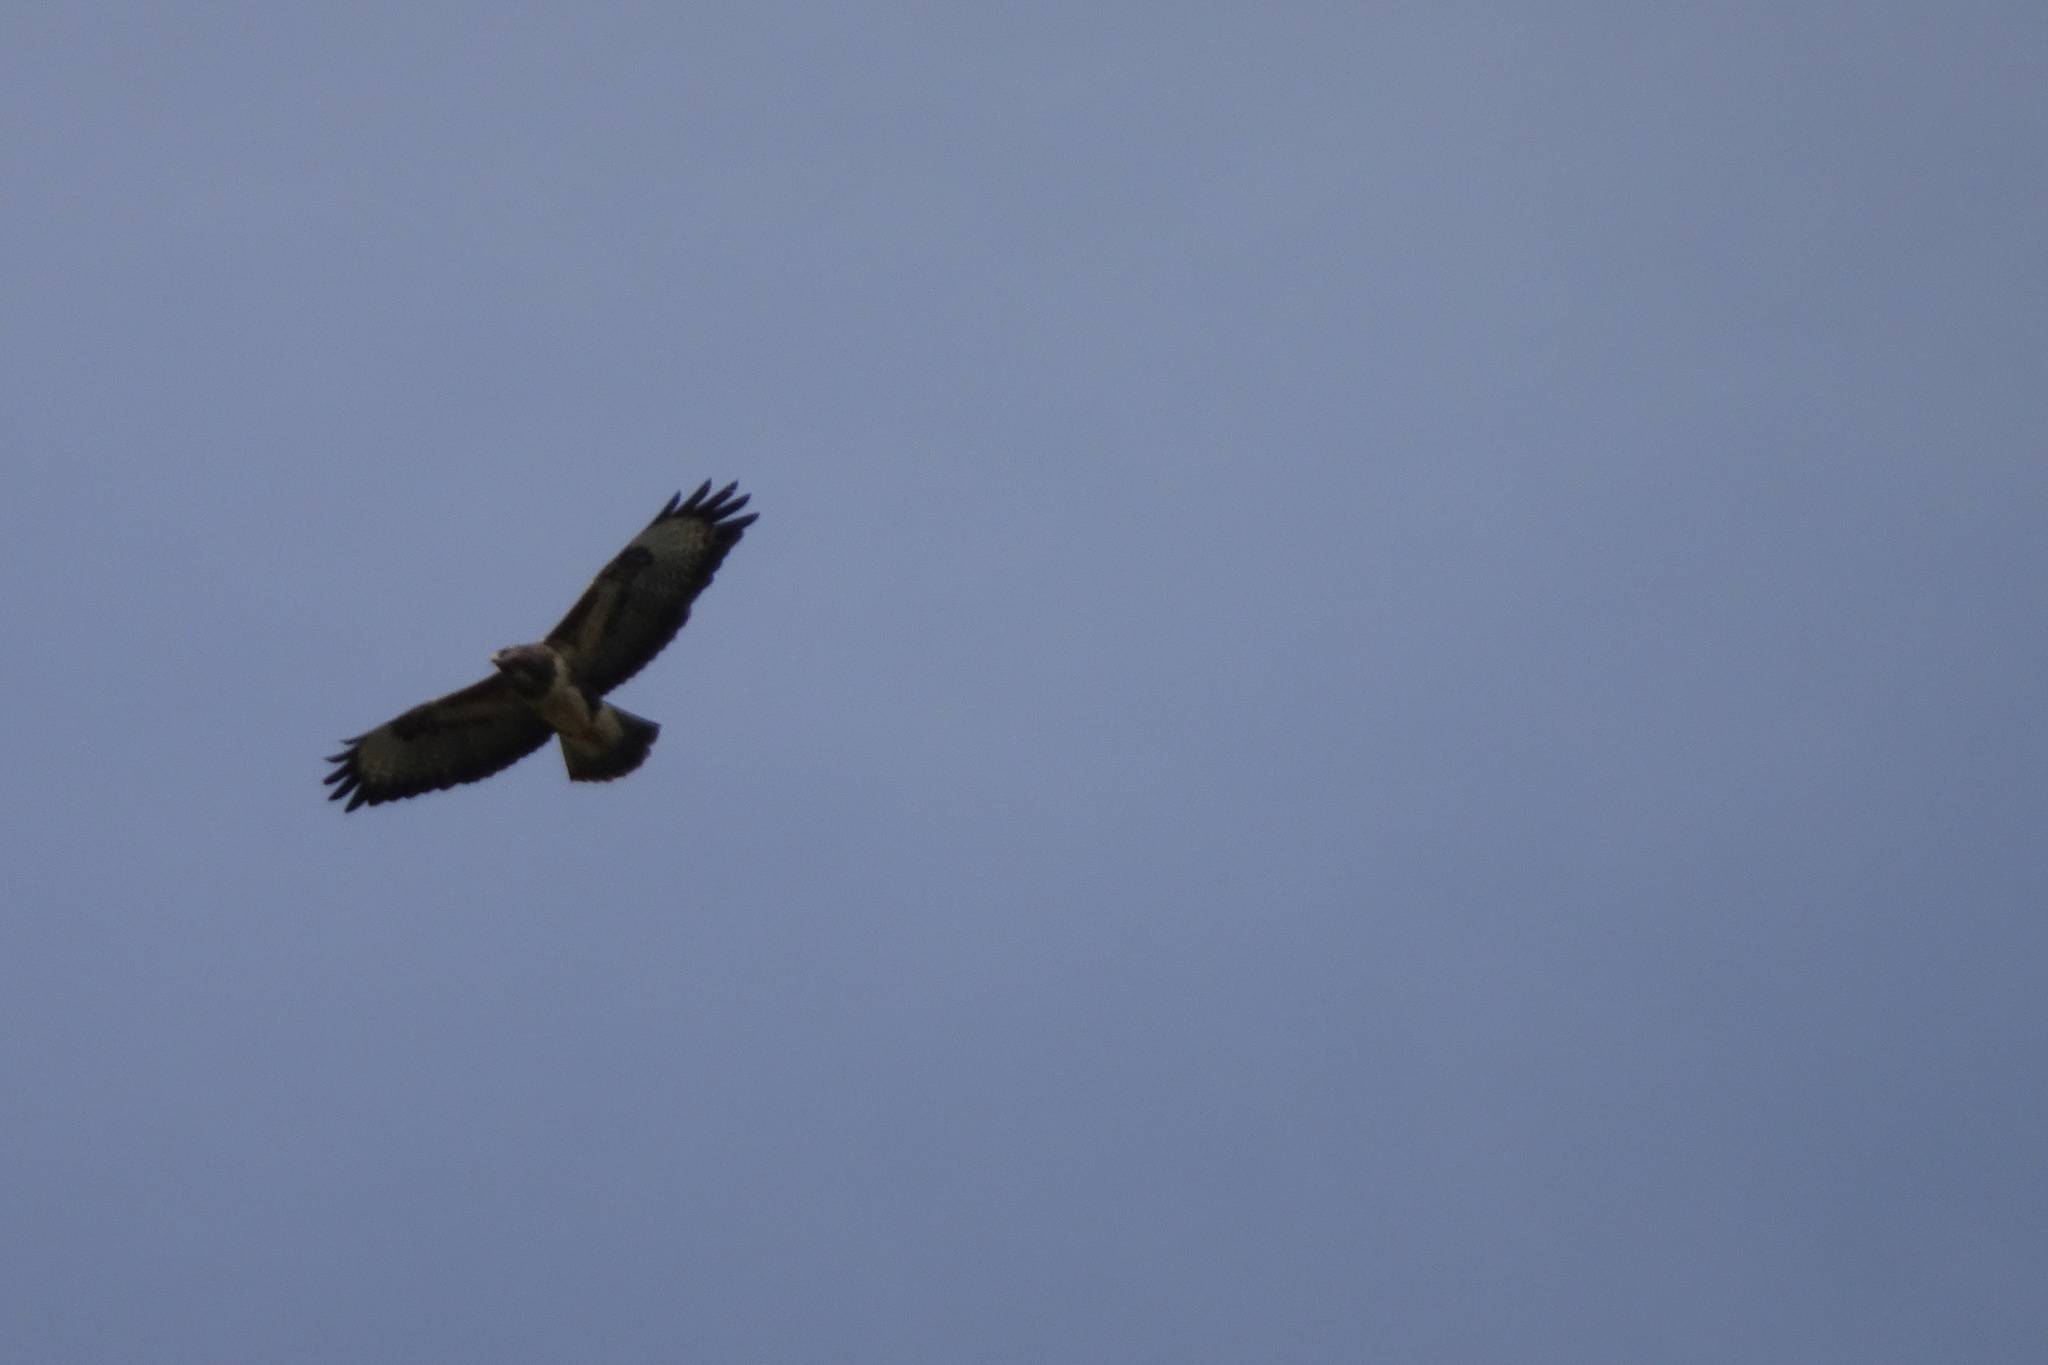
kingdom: Animalia
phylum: Chordata
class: Aves
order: Accipitriformes
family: Accipitridae
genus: Buteo
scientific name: Buteo buteo
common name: Common buzzard
